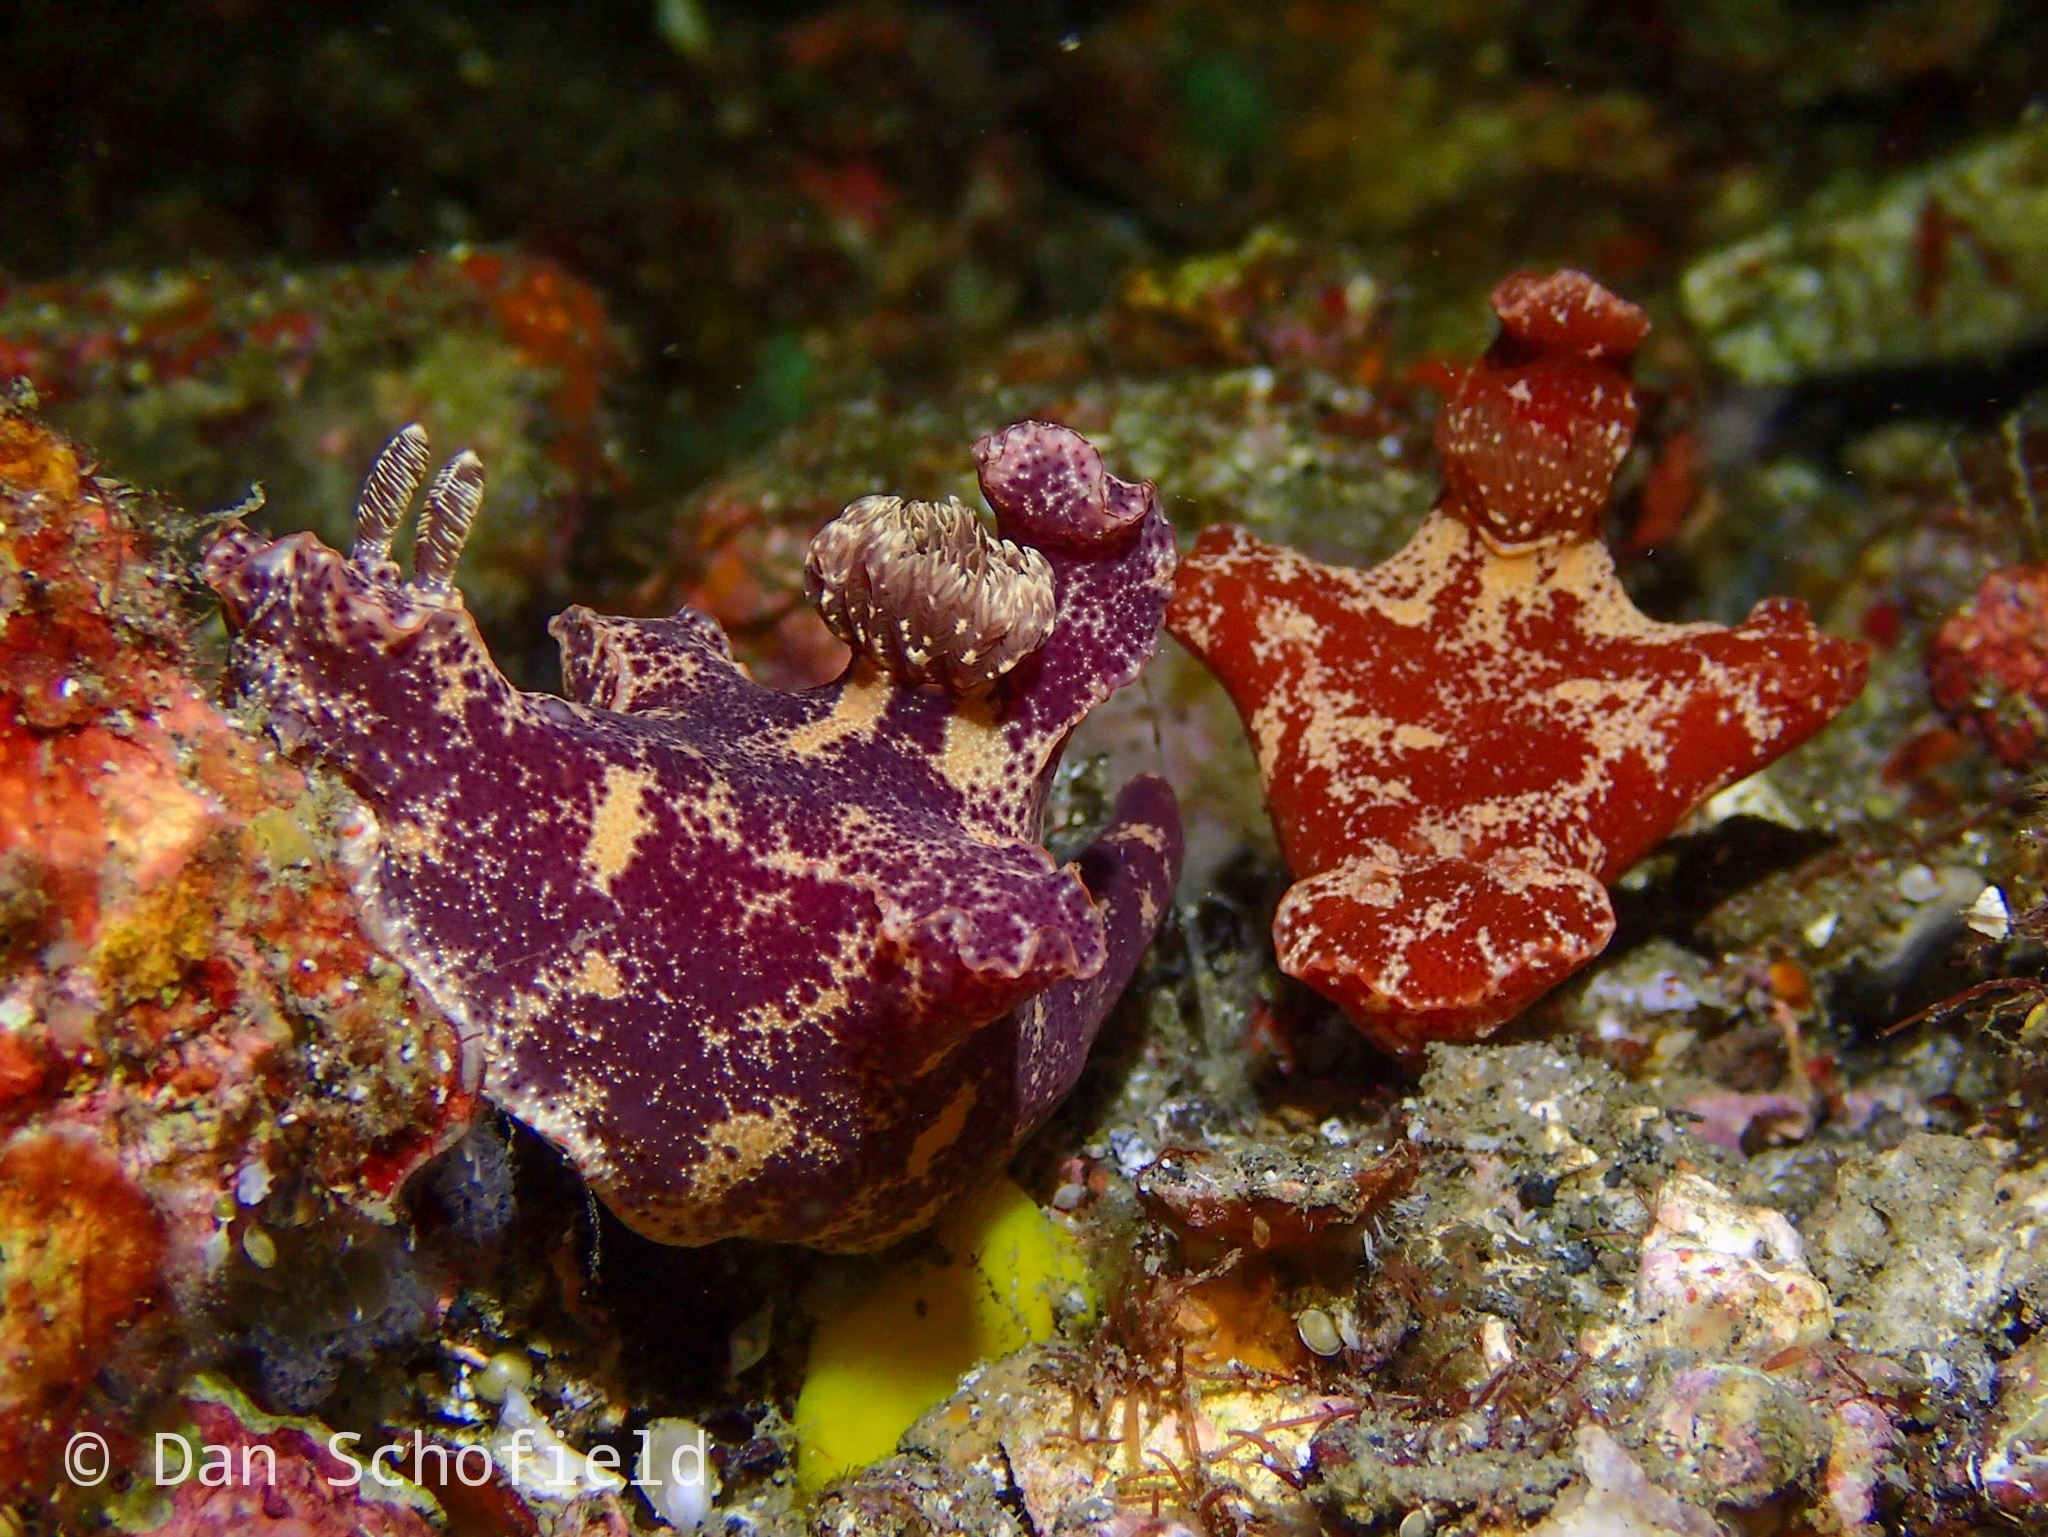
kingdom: Animalia
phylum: Mollusca
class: Gastropoda
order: Nudibranchia
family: Chromodorididae
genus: Ceratosoma
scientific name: Ceratosoma gracillimum
